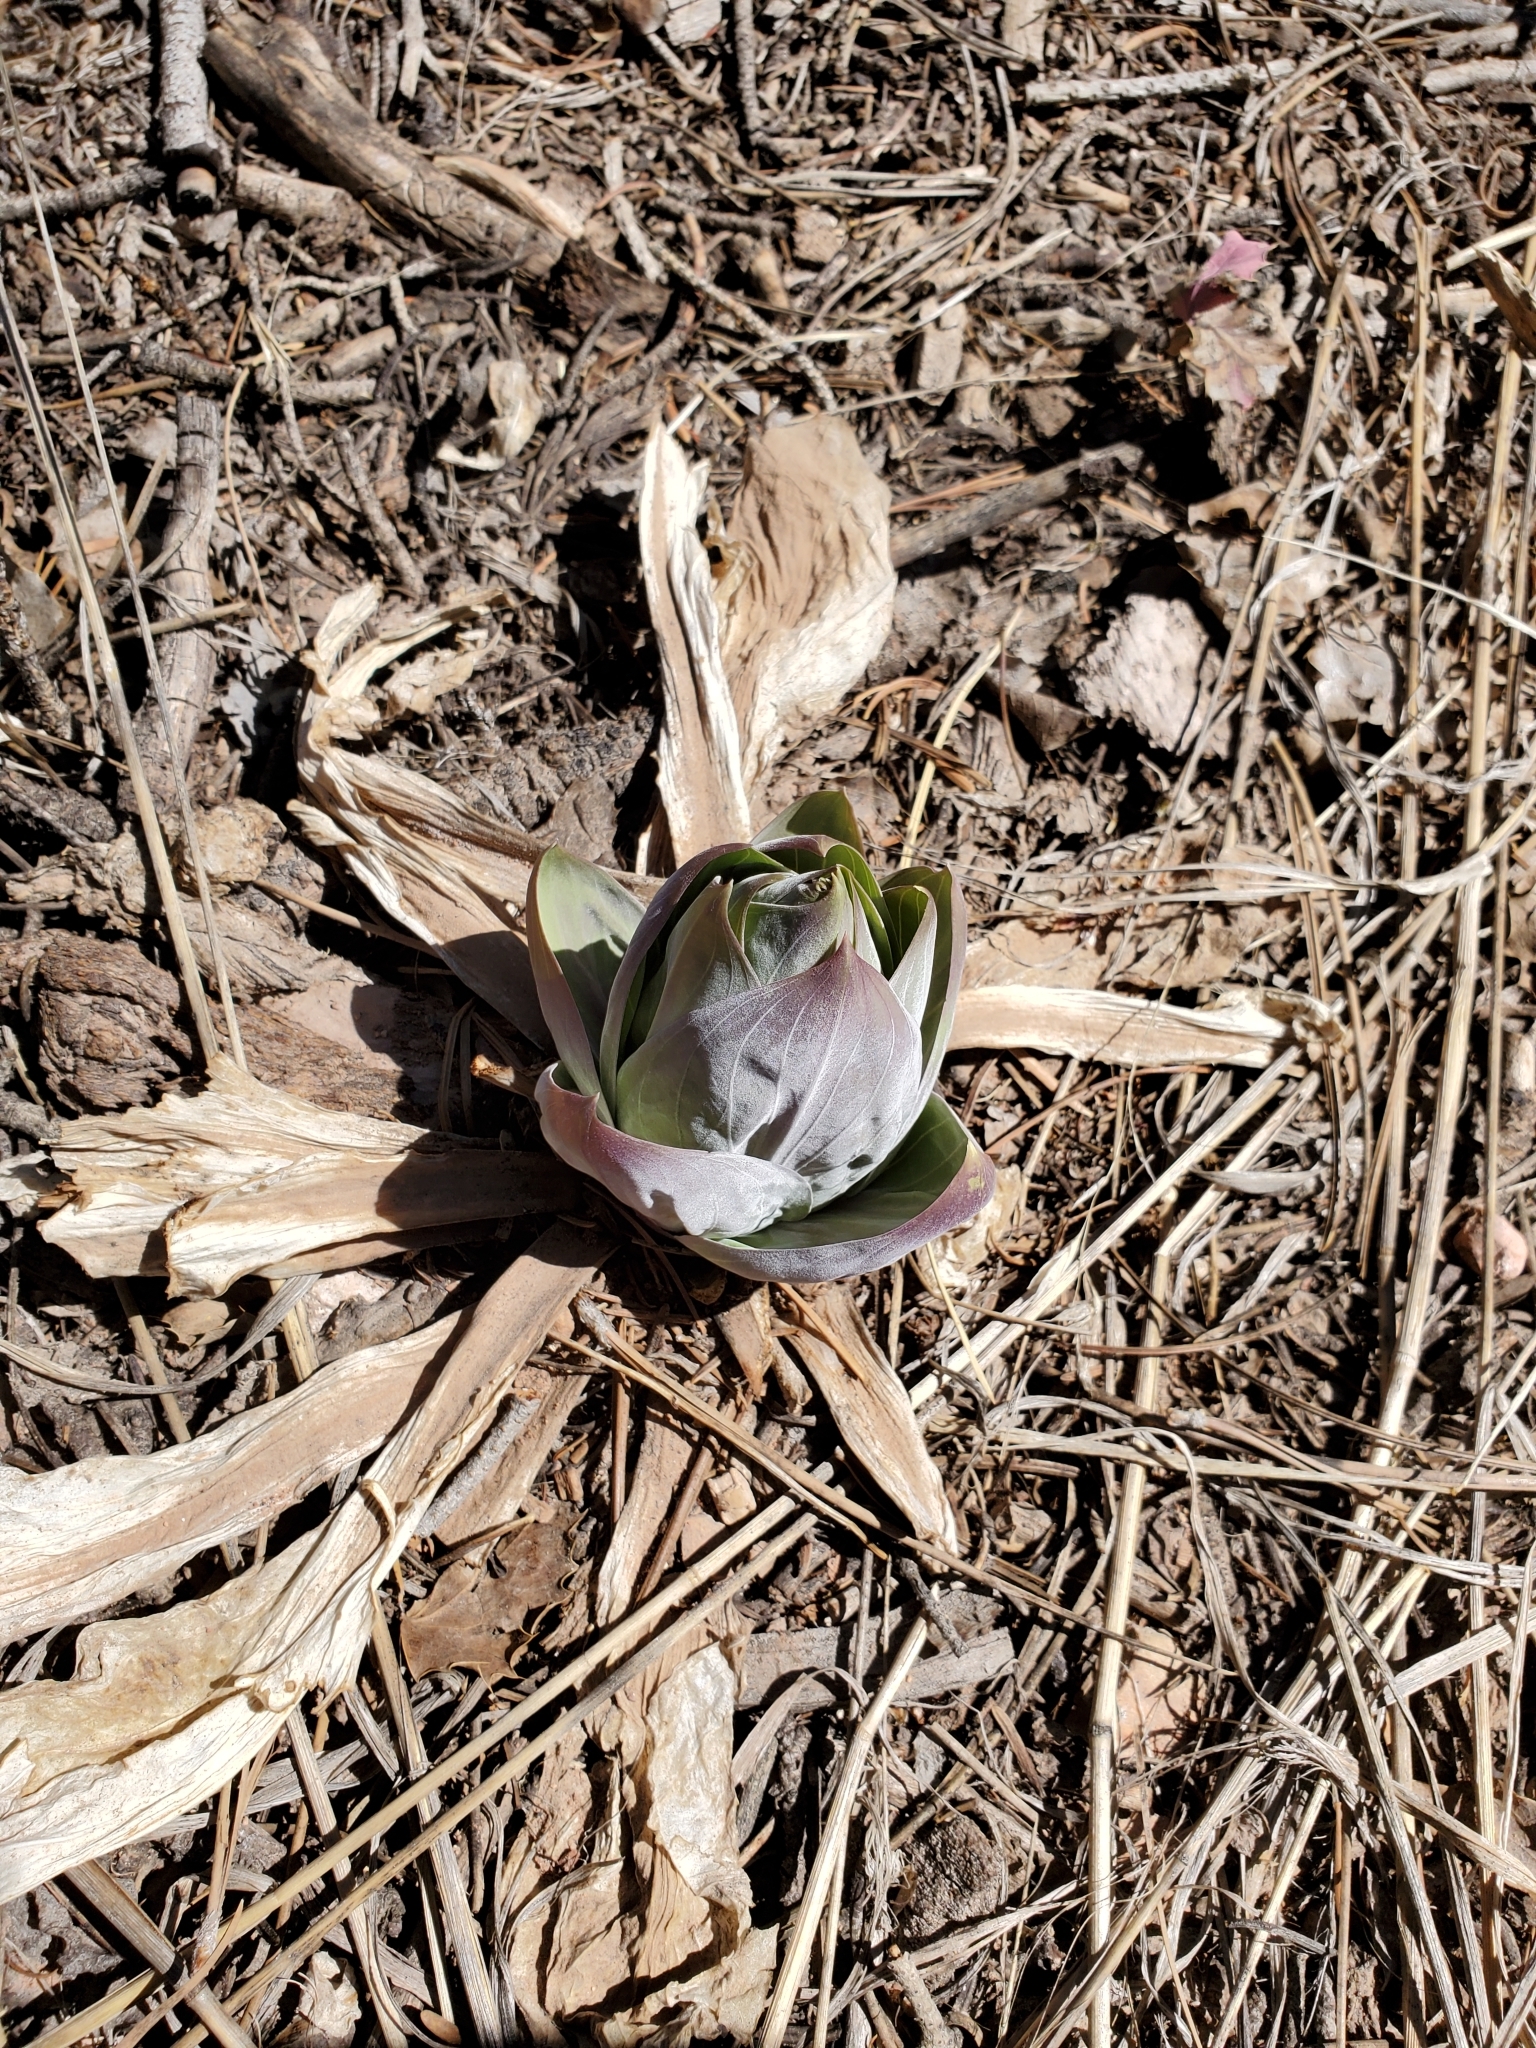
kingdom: Plantae
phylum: Tracheophyta
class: Magnoliopsida
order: Gentianales
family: Gentianaceae
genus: Frasera
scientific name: Frasera speciosa
